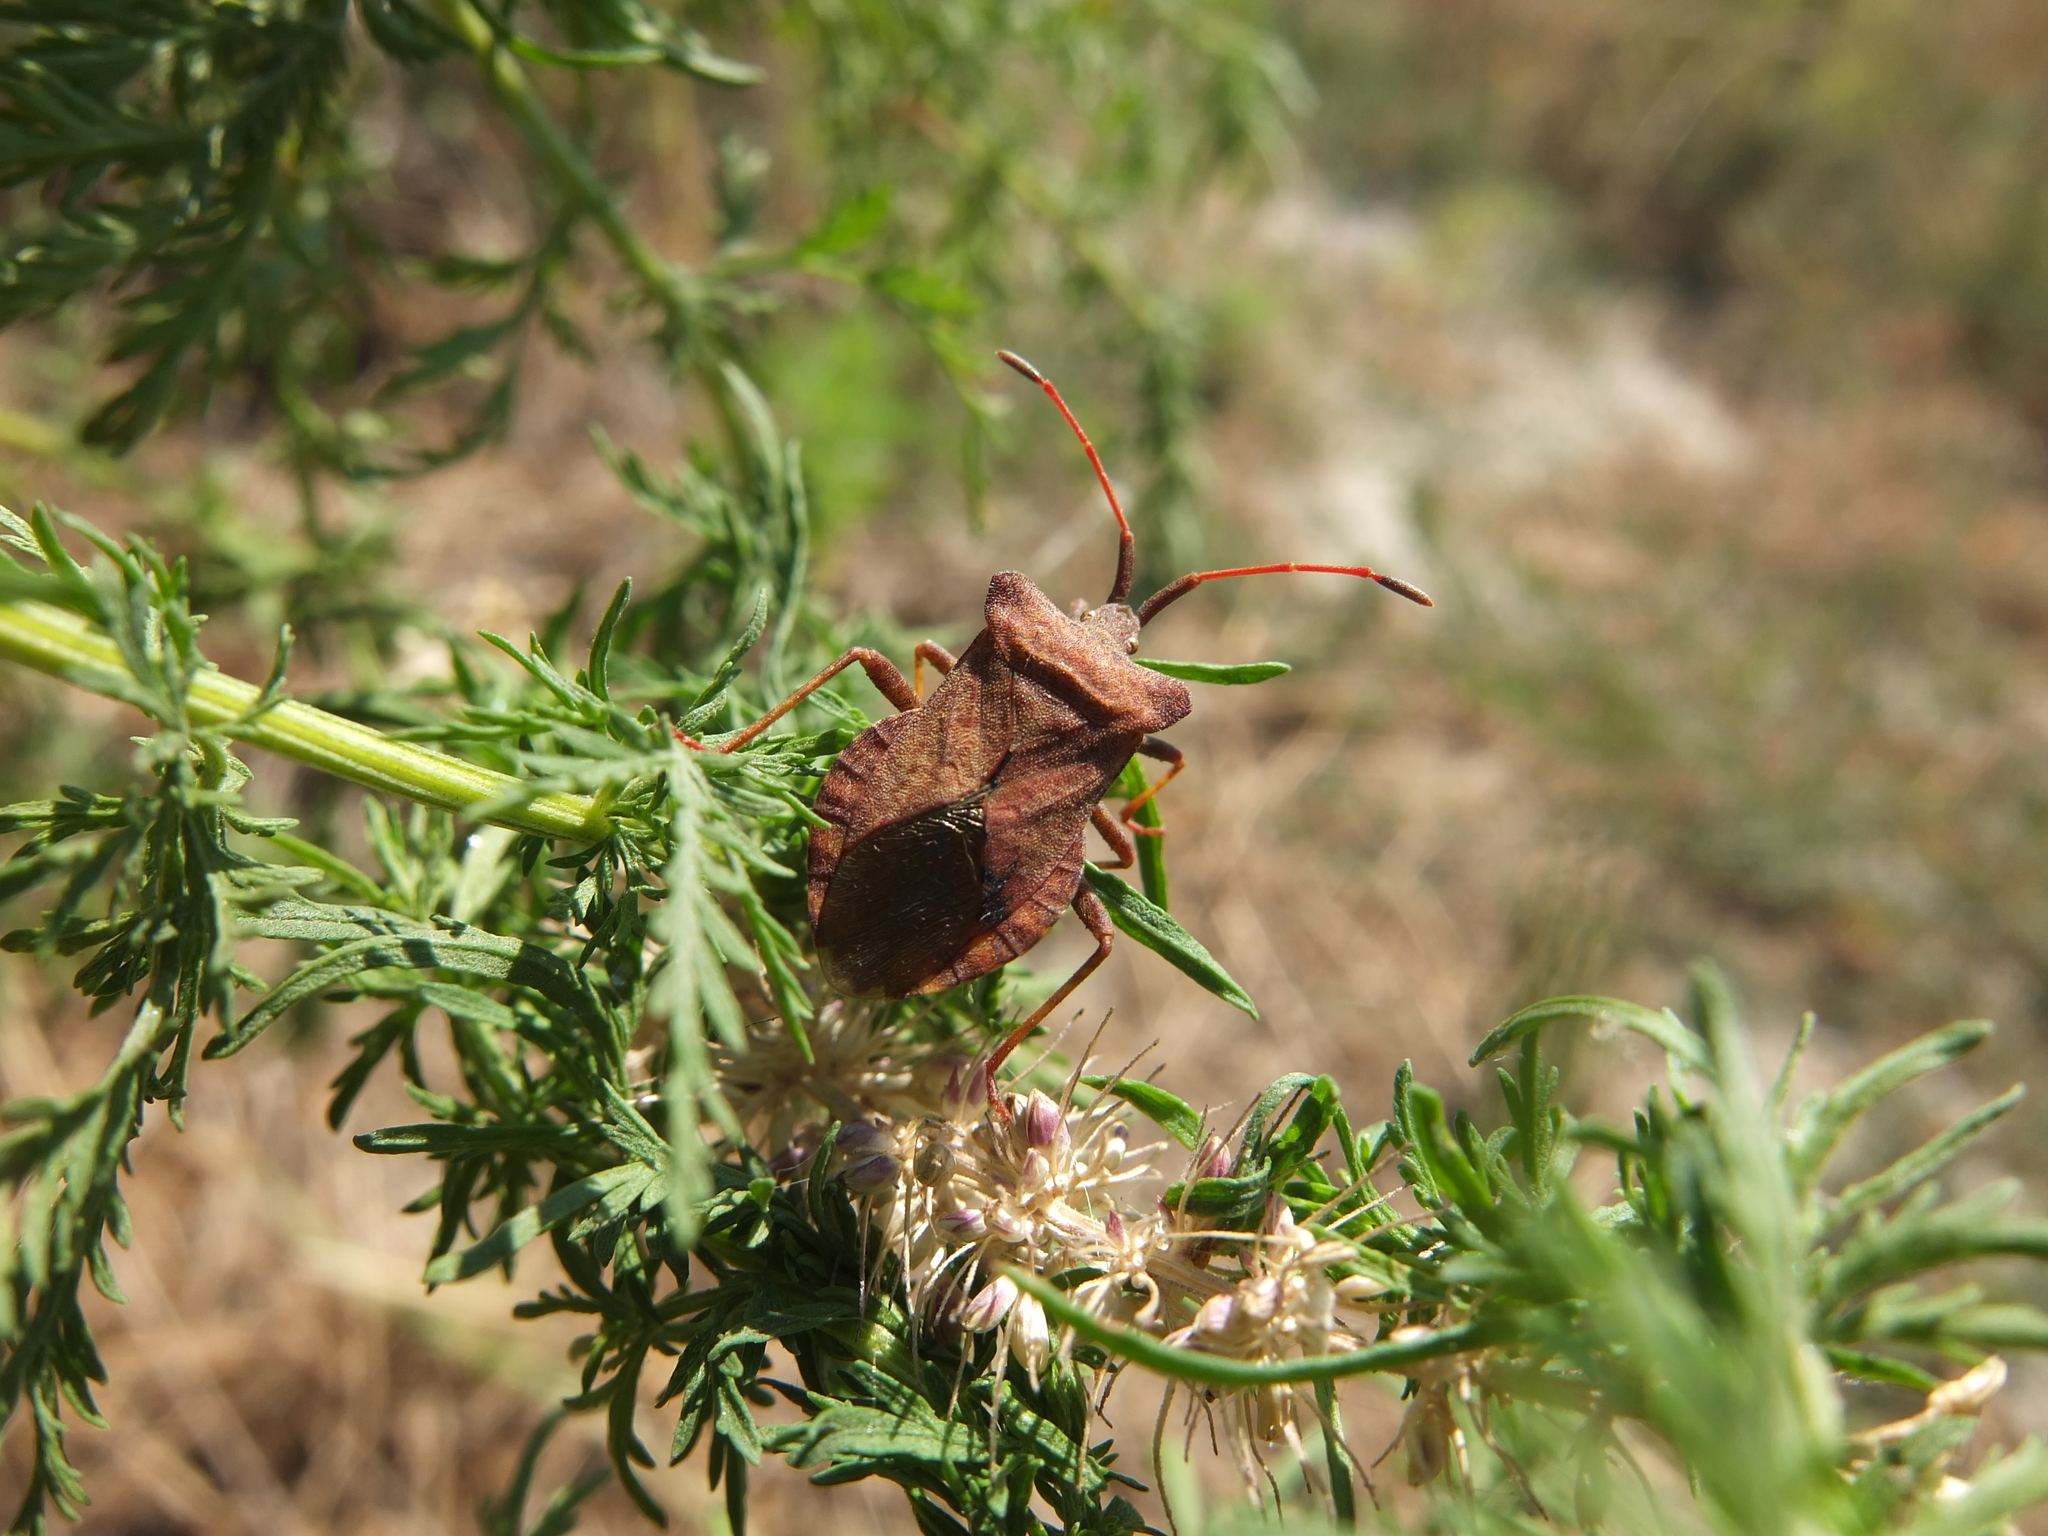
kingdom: Animalia
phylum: Arthropoda
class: Insecta
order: Hemiptera
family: Coreidae
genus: Coreus
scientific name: Coreus marginatus
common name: Dock bug
